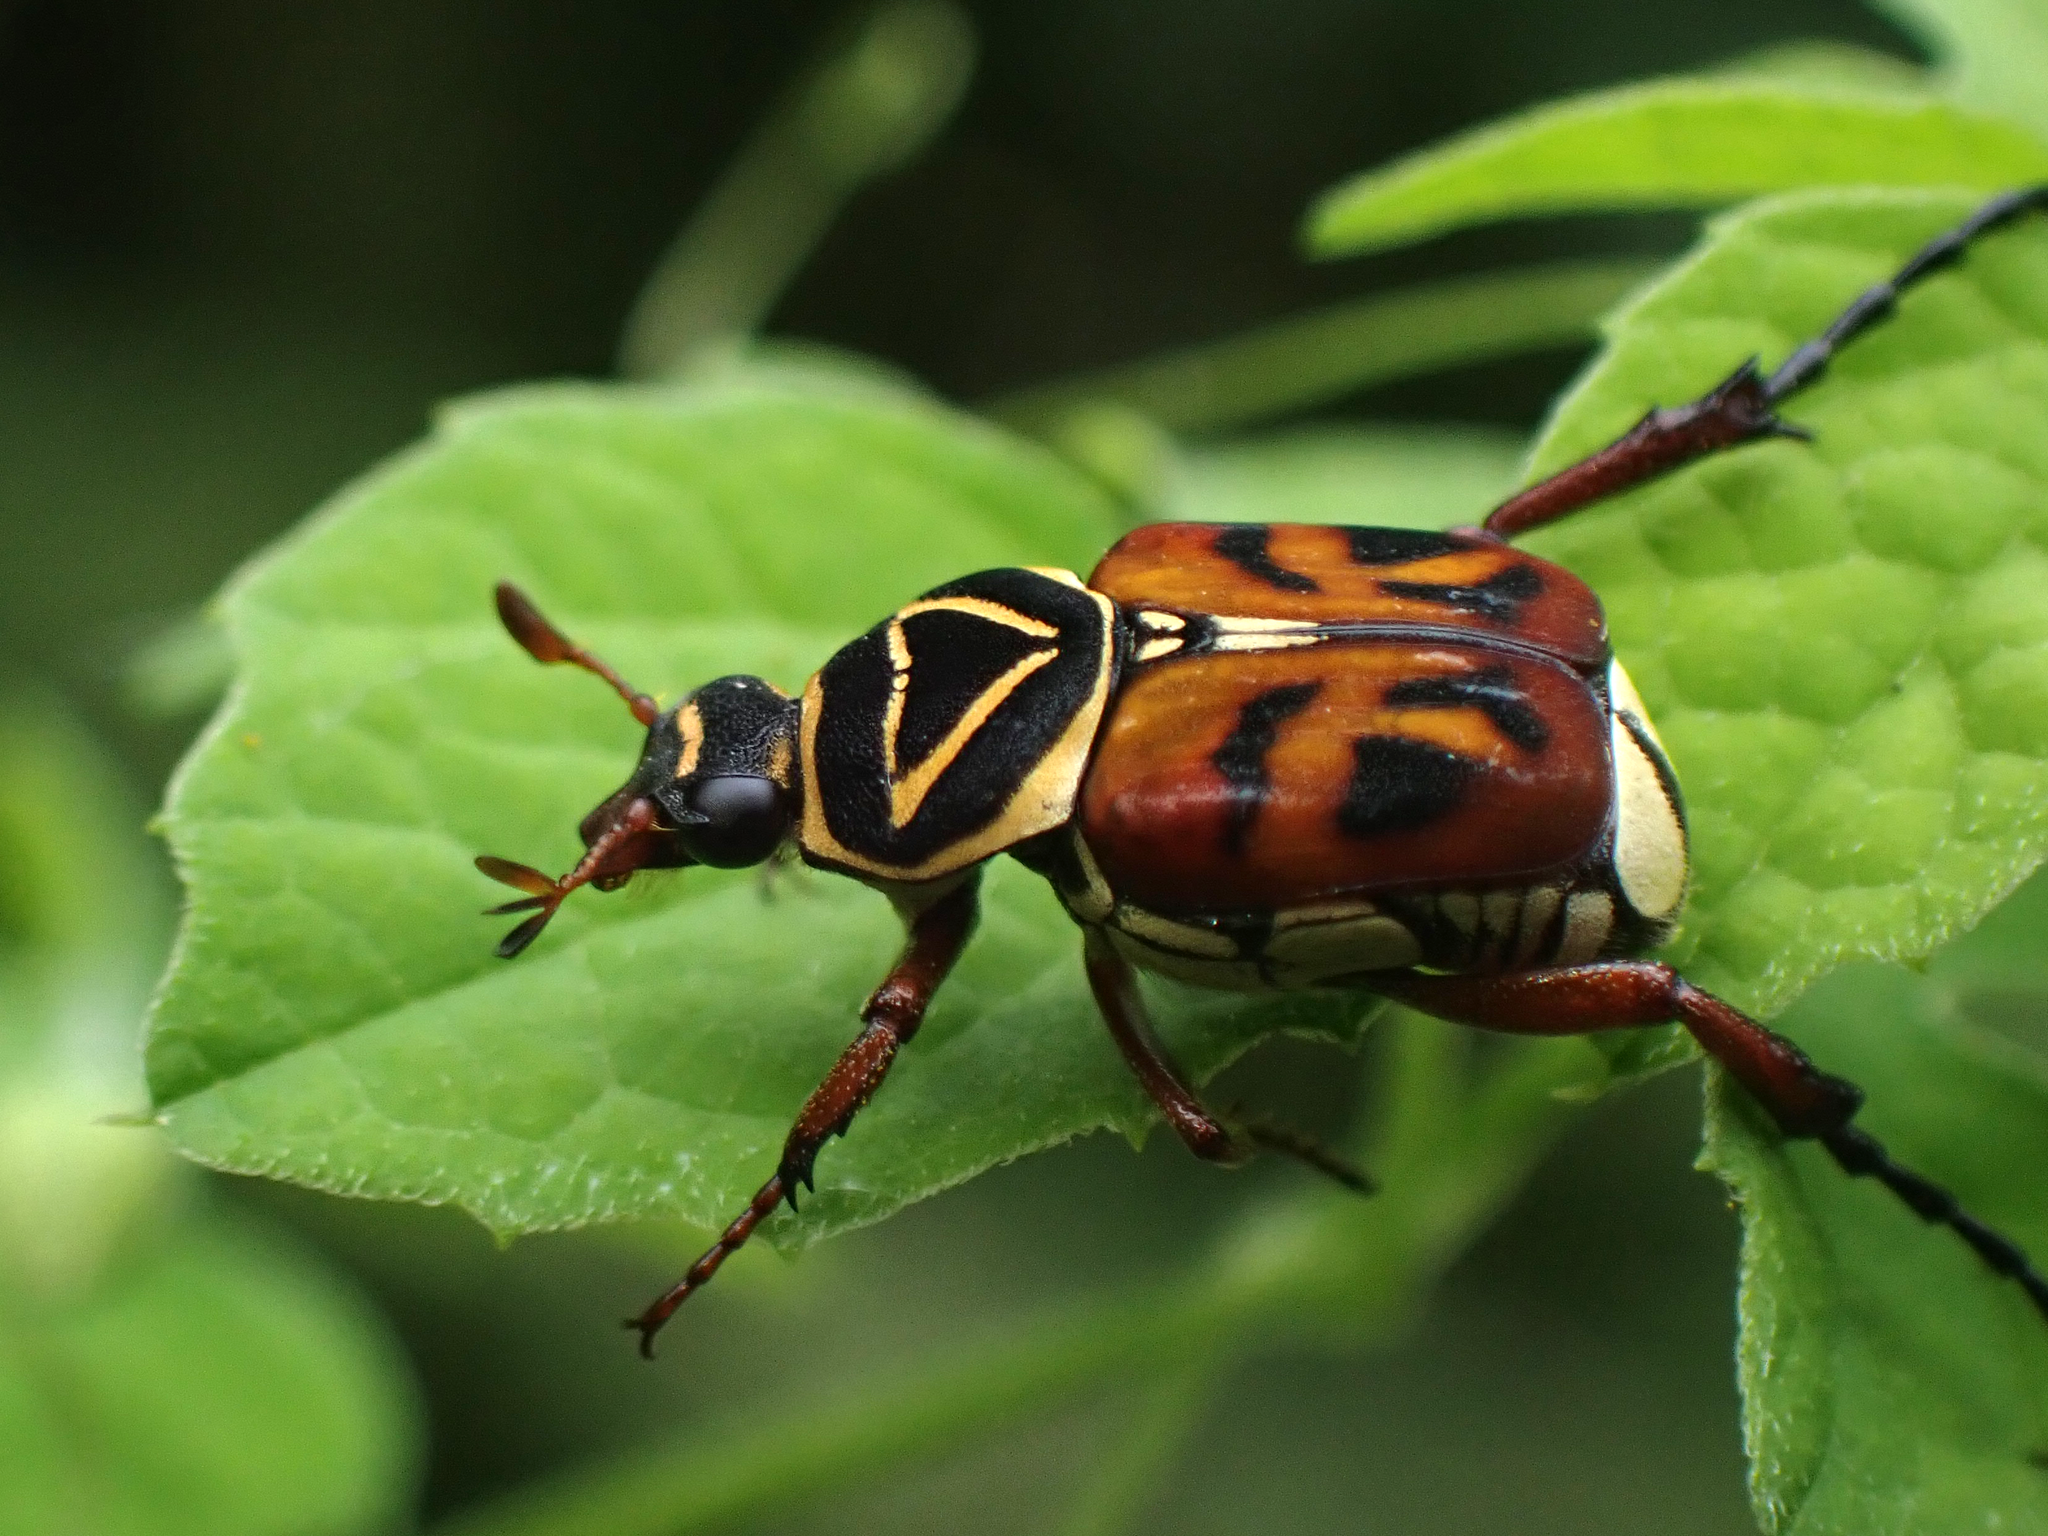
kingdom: Animalia
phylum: Arthropoda
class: Insecta
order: Coleoptera
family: Scarabaeidae
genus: Trigonopeltastes
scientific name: Trigonopeltastes delta
